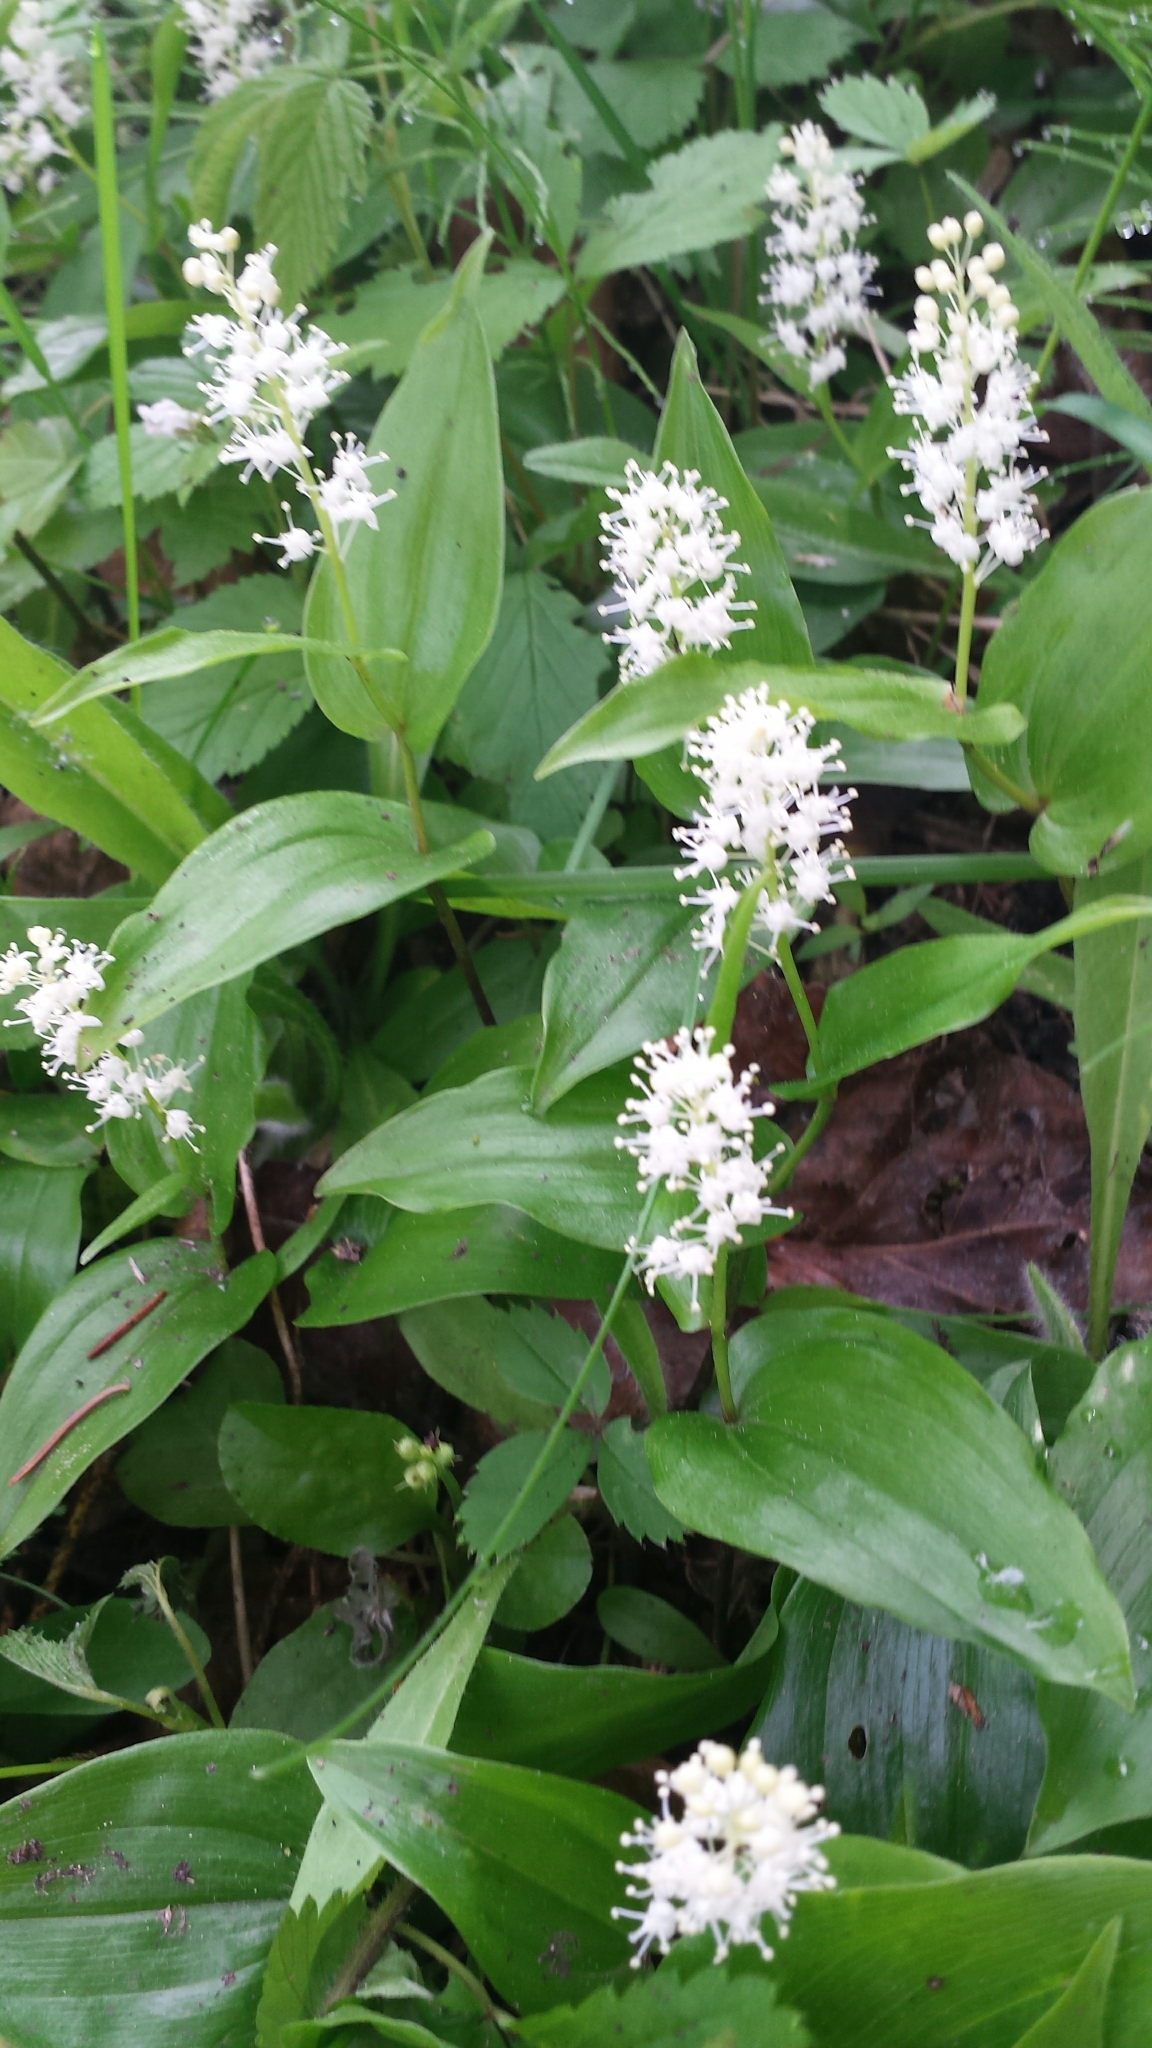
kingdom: Plantae
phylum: Tracheophyta
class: Liliopsida
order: Asparagales
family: Asparagaceae
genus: Maianthemum
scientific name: Maianthemum canadense
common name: False lily-of-the-valley
